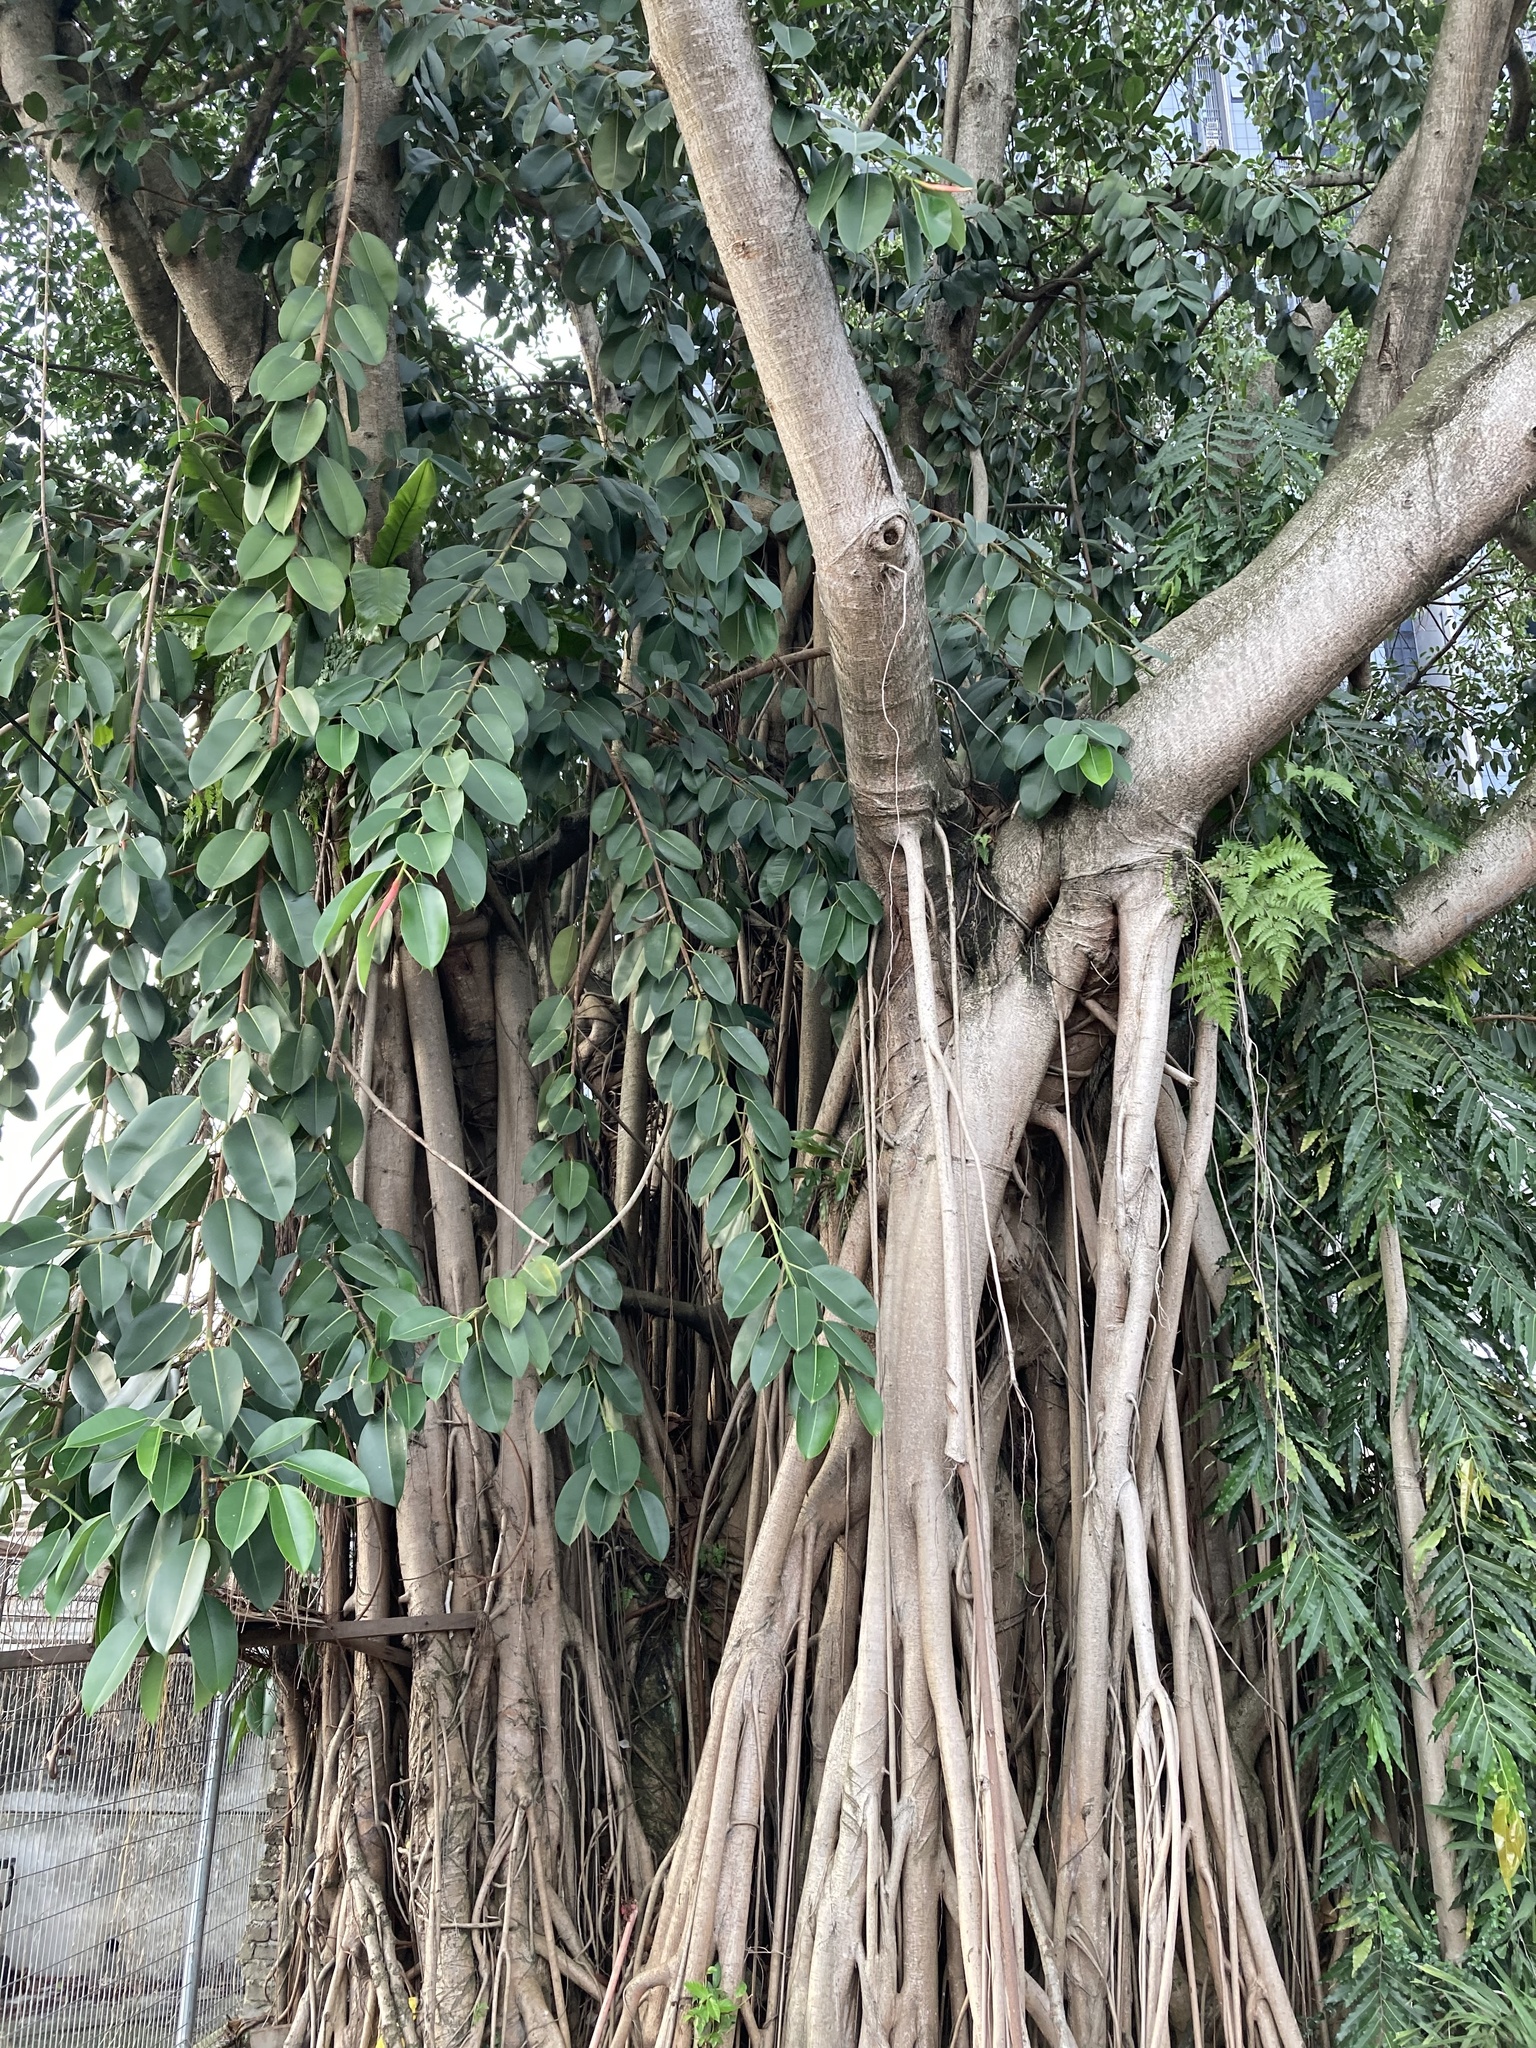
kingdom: Plantae
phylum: Tracheophyta
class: Magnoliopsida
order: Rosales
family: Moraceae
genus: Ficus
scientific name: Ficus benghalensis
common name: Indian banyan
